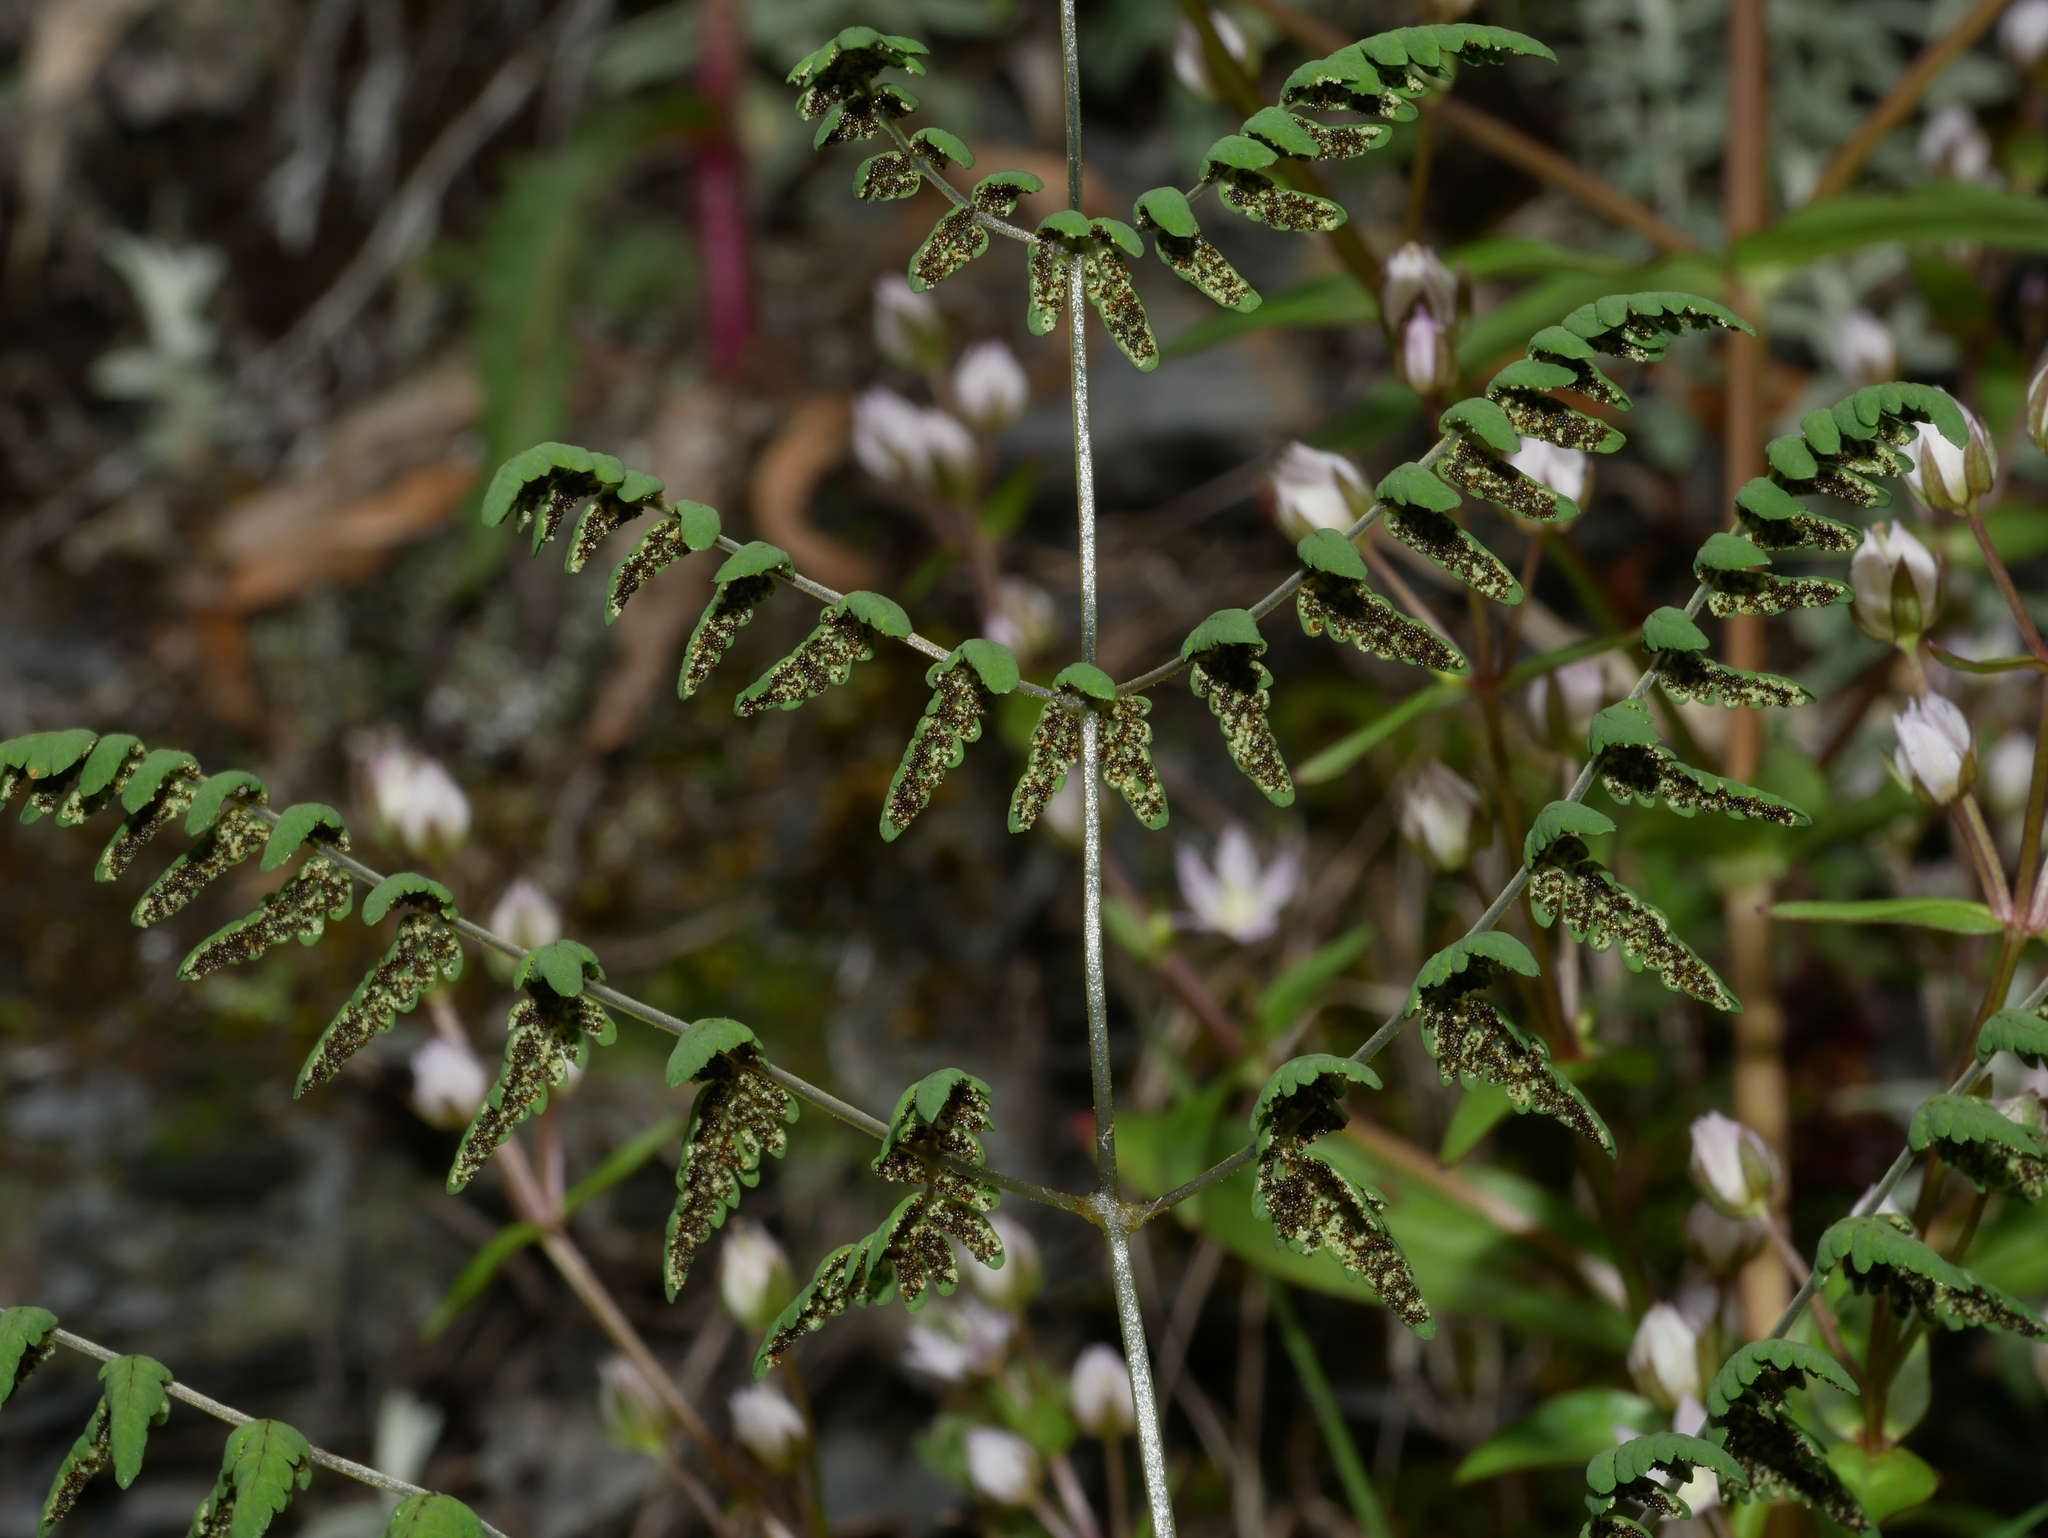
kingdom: Plantae
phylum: Tracheophyta
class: Polypodiopsida
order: Polypodiales
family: Cystopteridaceae
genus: Gymnocarpium
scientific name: Gymnocarpium remotepinnatum
